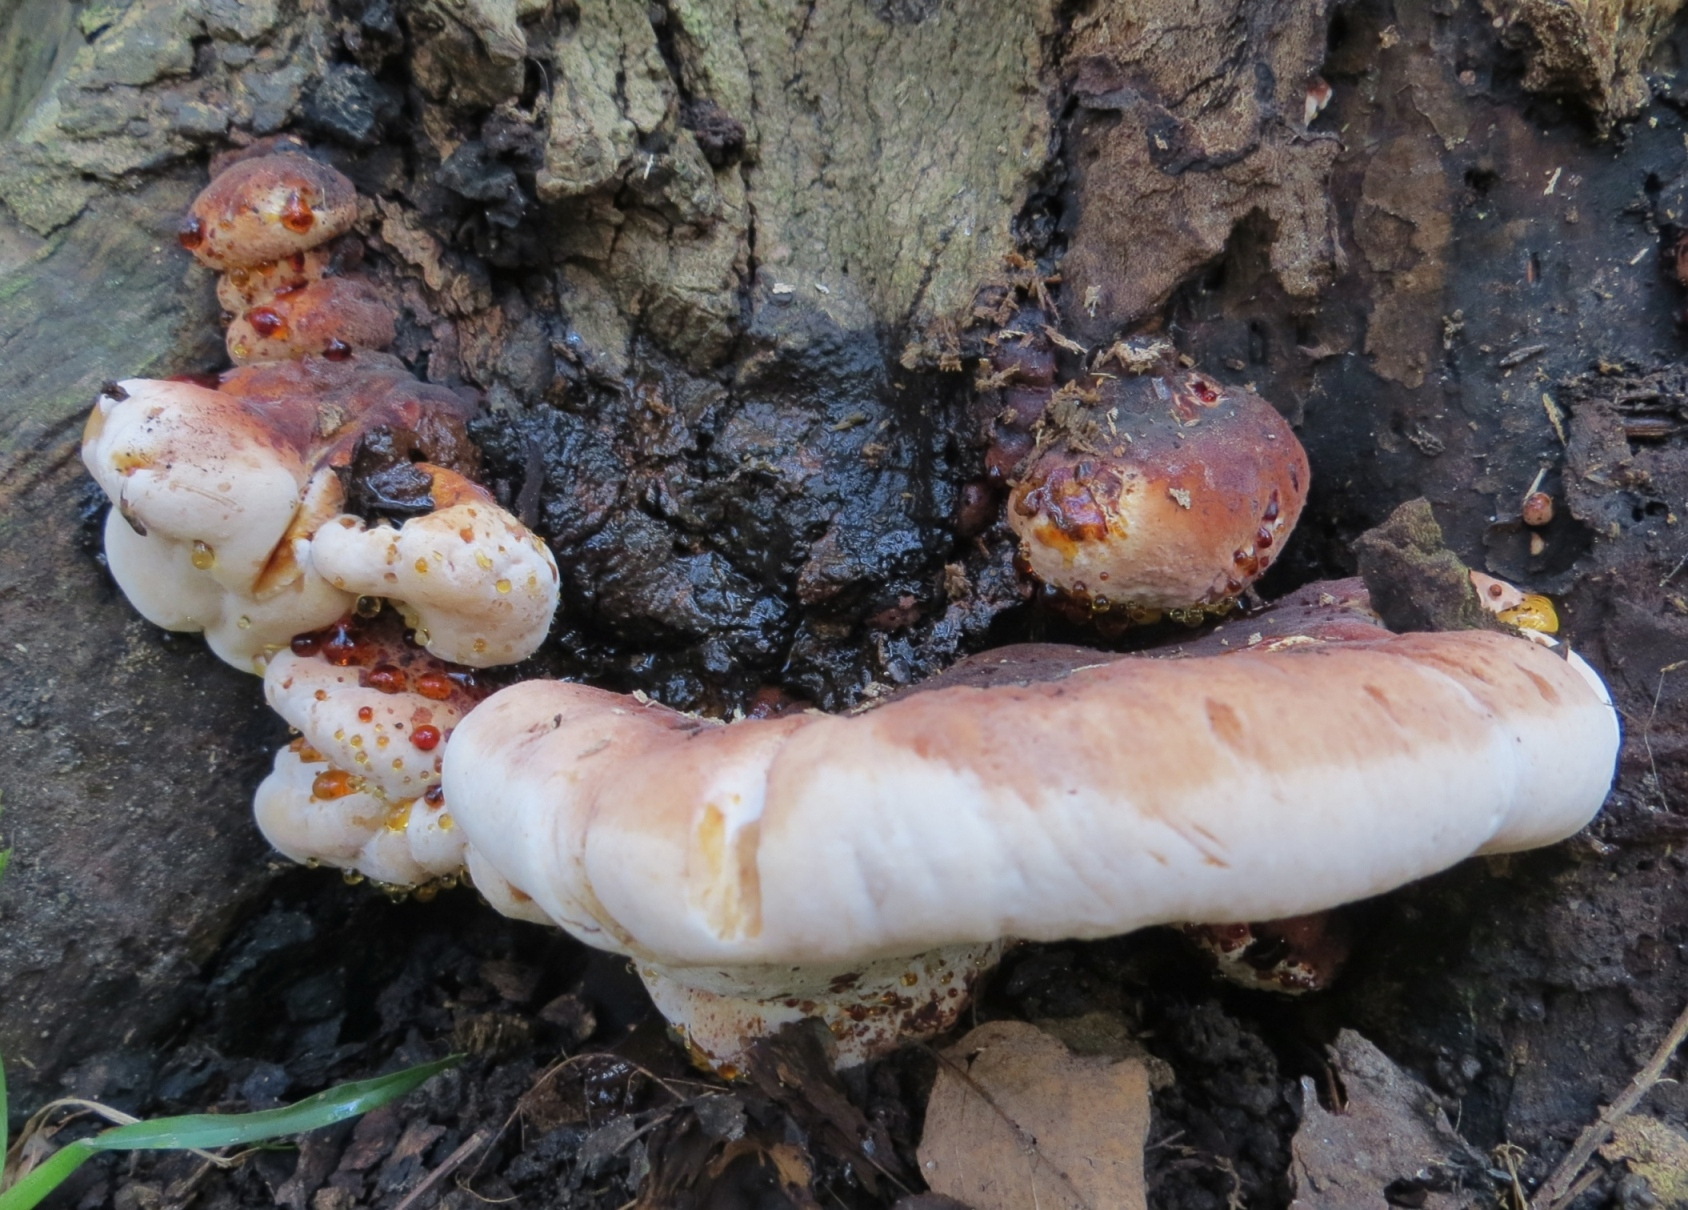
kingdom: Fungi
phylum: Basidiomycota
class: Agaricomycetes
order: Polyporales
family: Ischnodermataceae
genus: Ischnoderma
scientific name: Ischnoderma resinosum
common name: Resinous polypore
